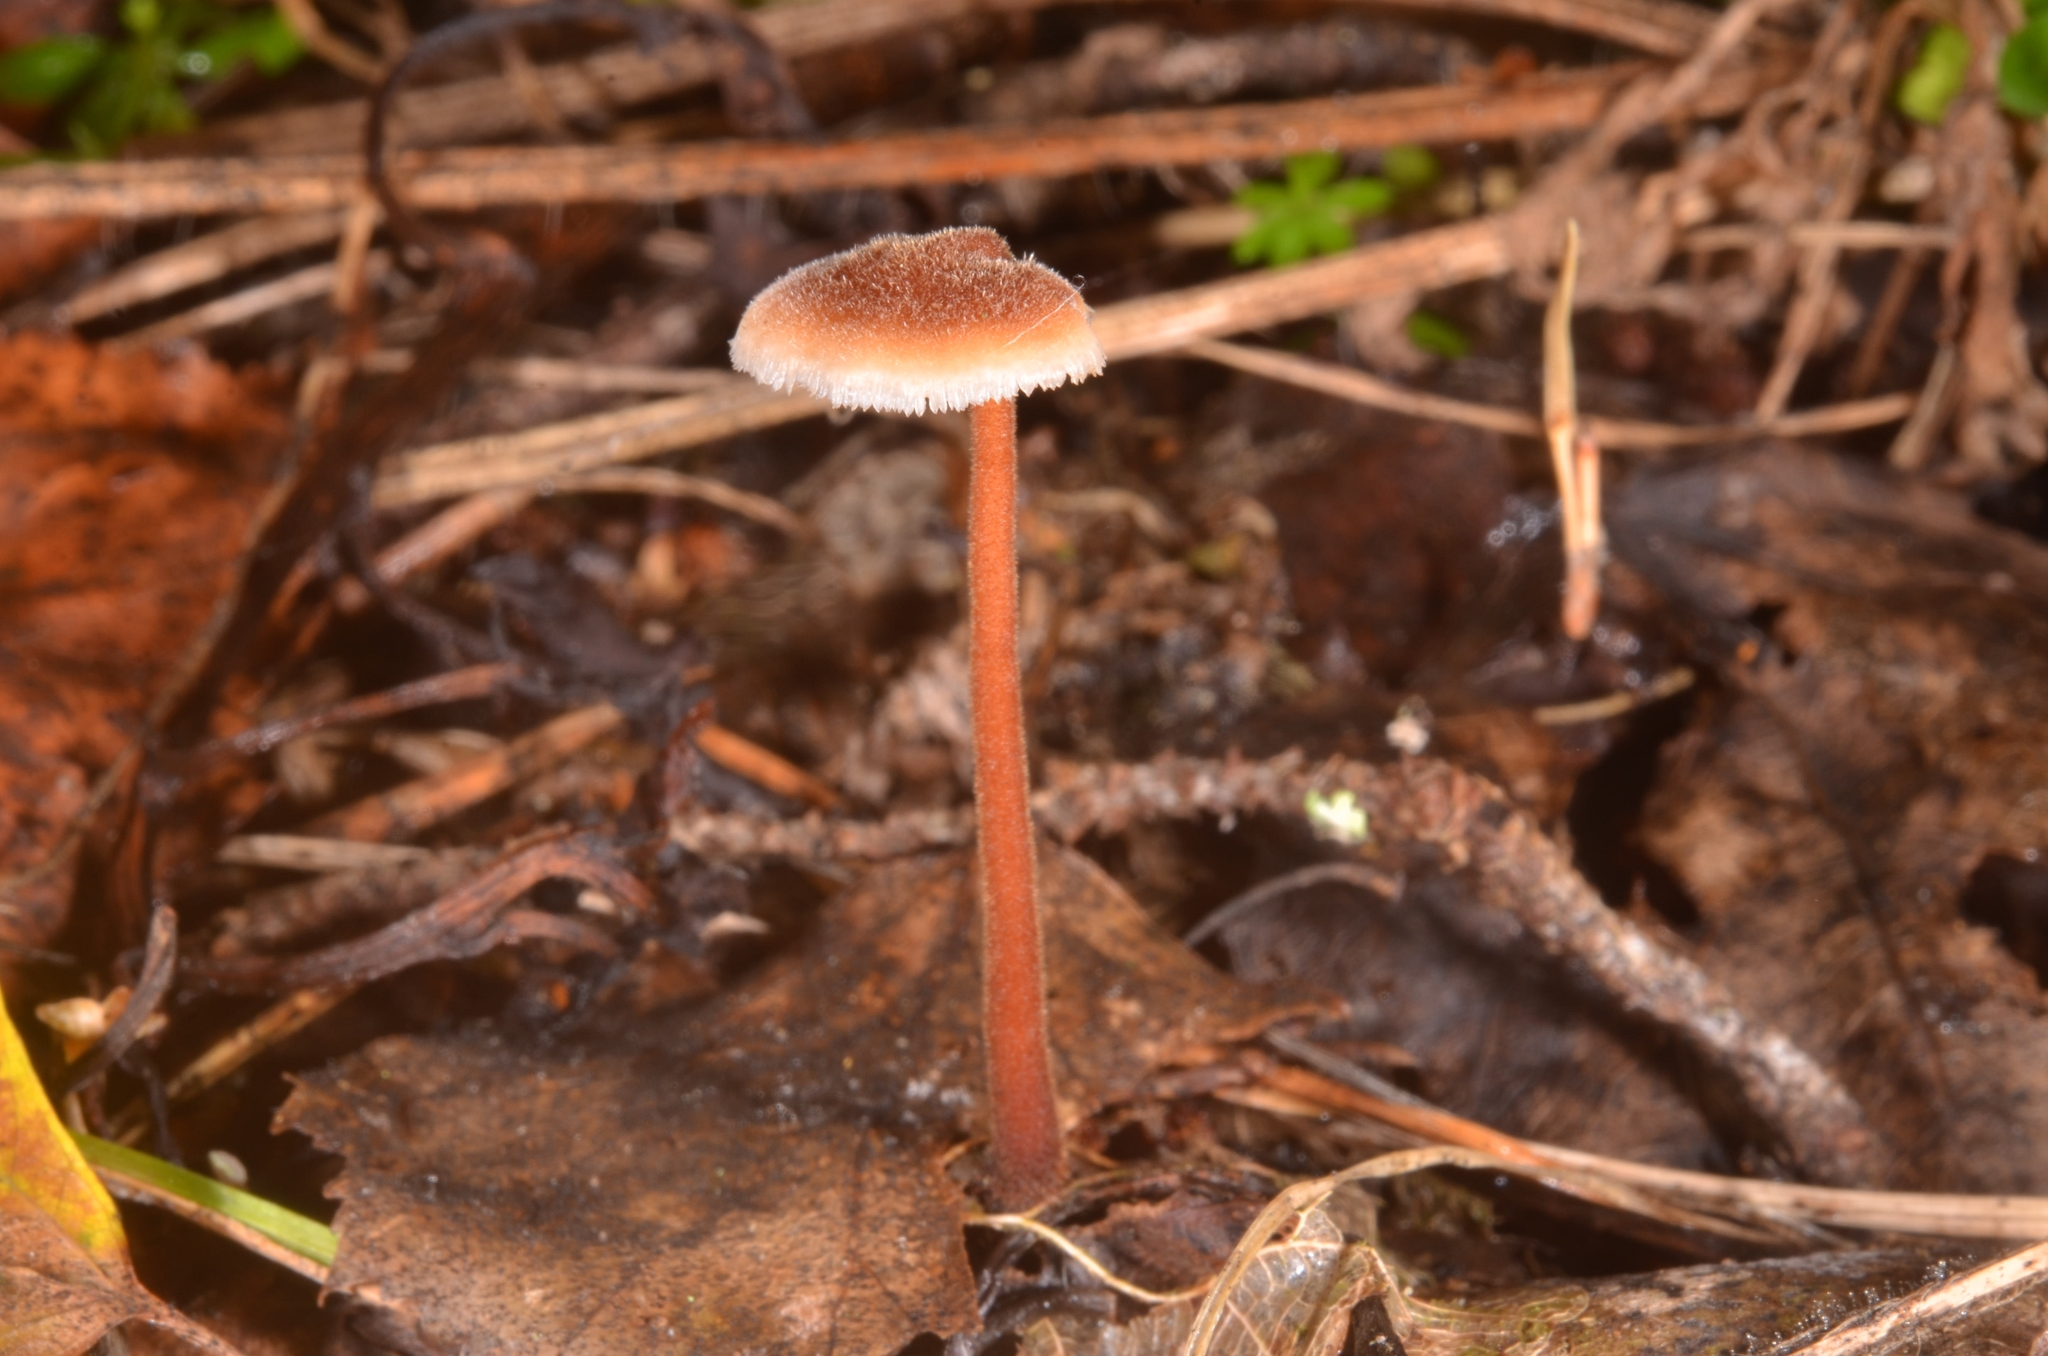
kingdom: Fungi
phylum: Basidiomycota
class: Agaricomycetes
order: Russulales
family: Auriscalpiaceae
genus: Auriscalpium
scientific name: Auriscalpium vulgare
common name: Earpick fungus
